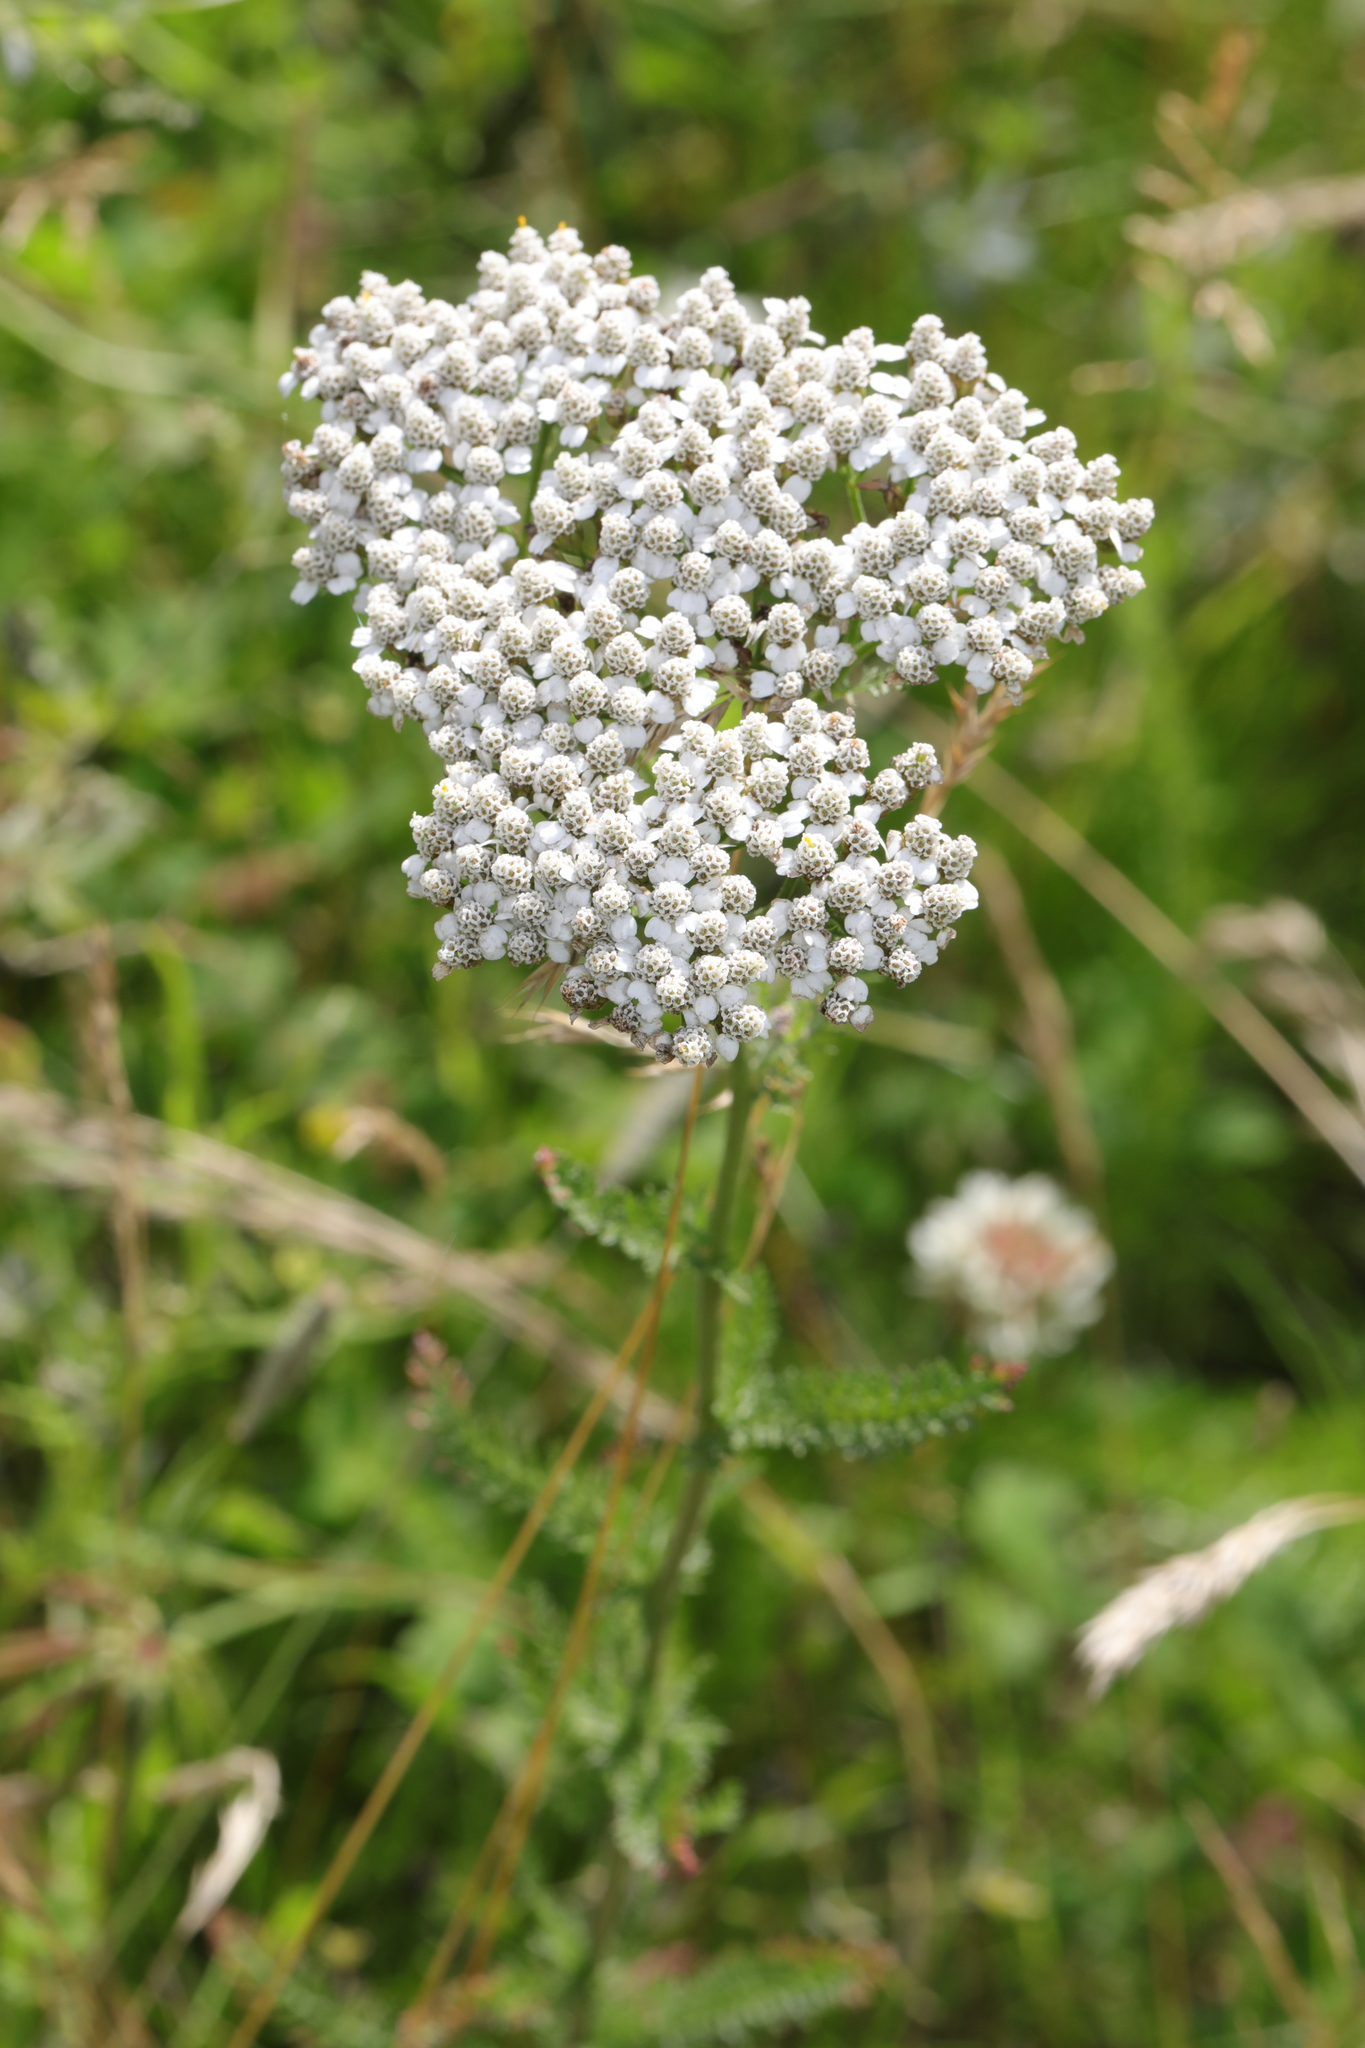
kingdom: Plantae
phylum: Tracheophyta
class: Magnoliopsida
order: Asterales
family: Asteraceae
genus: Achillea
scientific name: Achillea millefolium
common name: Yarrow
